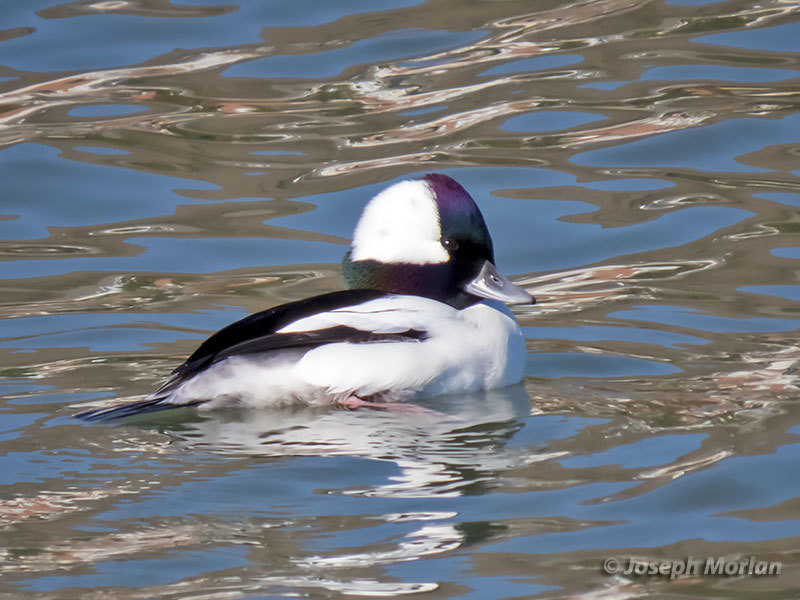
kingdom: Animalia
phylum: Chordata
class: Aves
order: Anseriformes
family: Anatidae
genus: Bucephala
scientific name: Bucephala albeola
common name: Bufflehead
